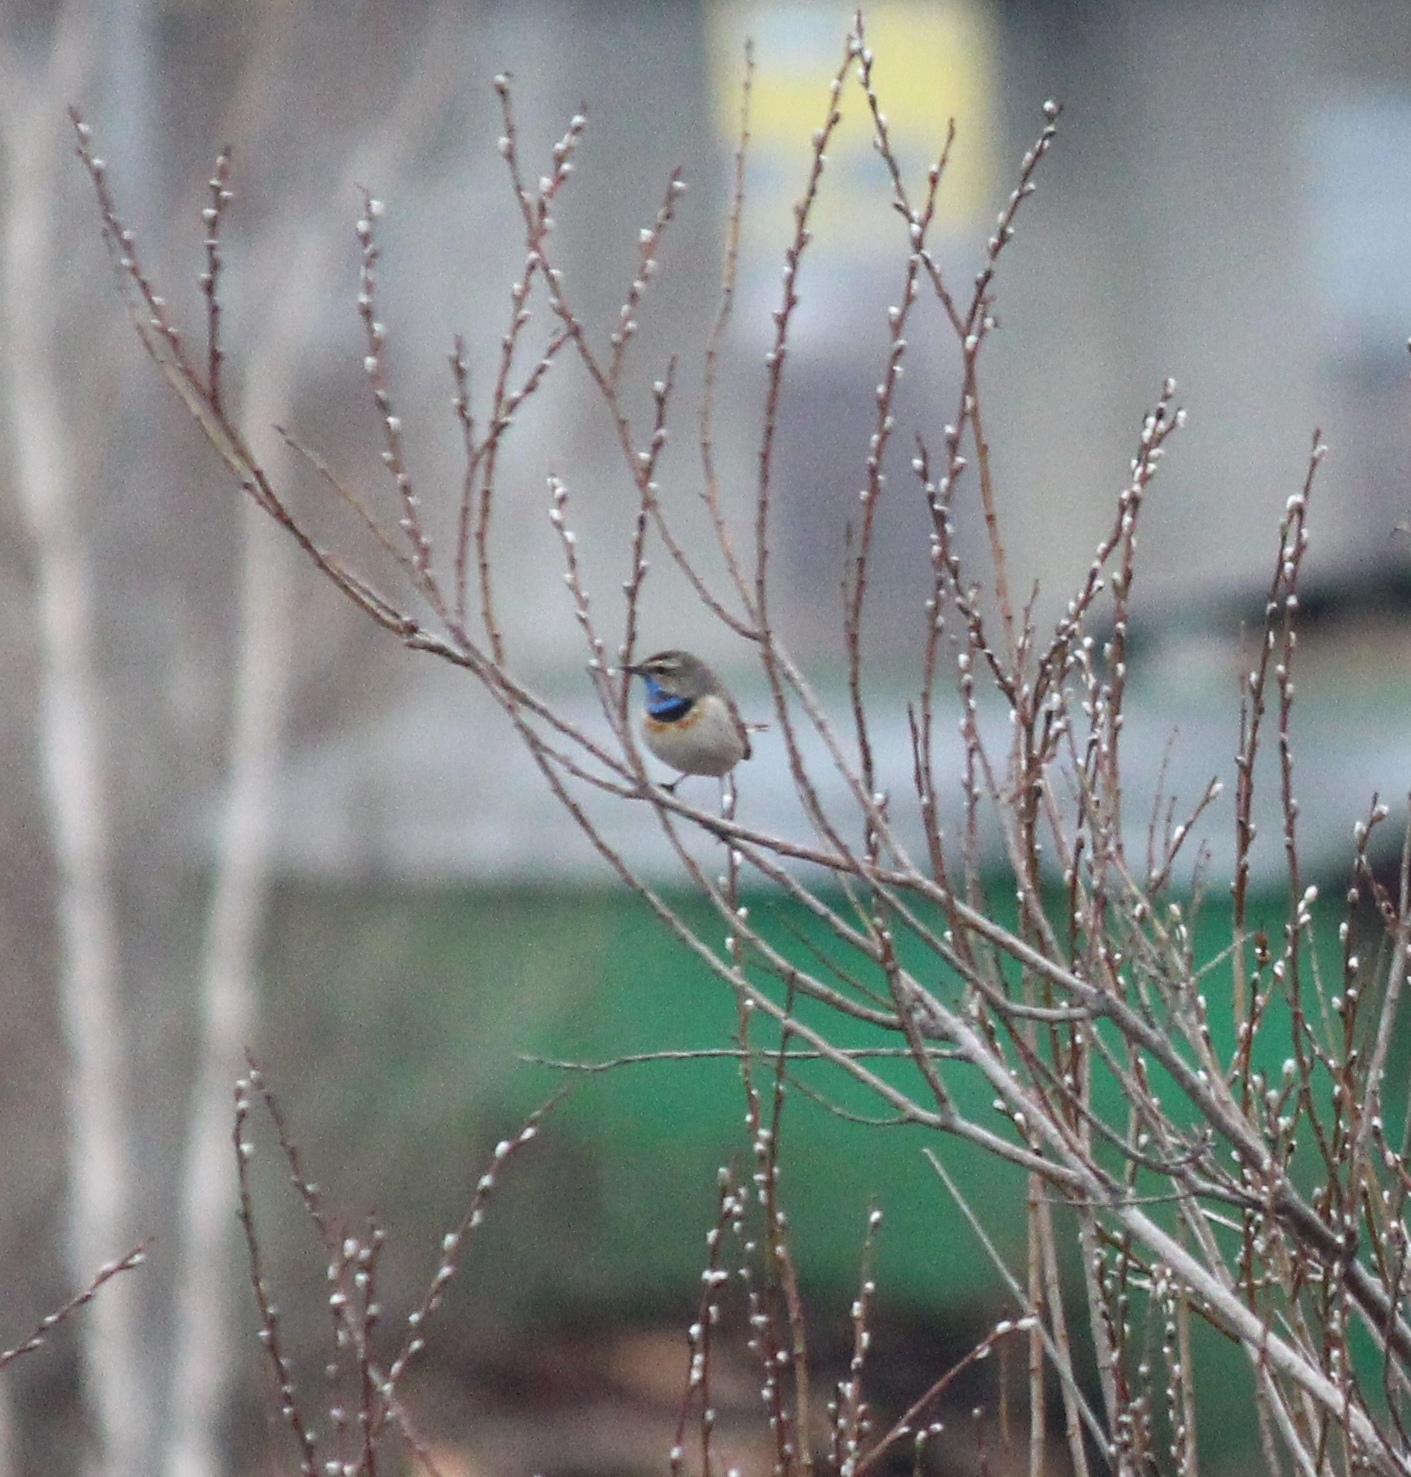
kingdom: Animalia
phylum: Chordata
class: Aves
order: Passeriformes
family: Muscicapidae
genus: Luscinia
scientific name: Luscinia svecica
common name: Bluethroat
